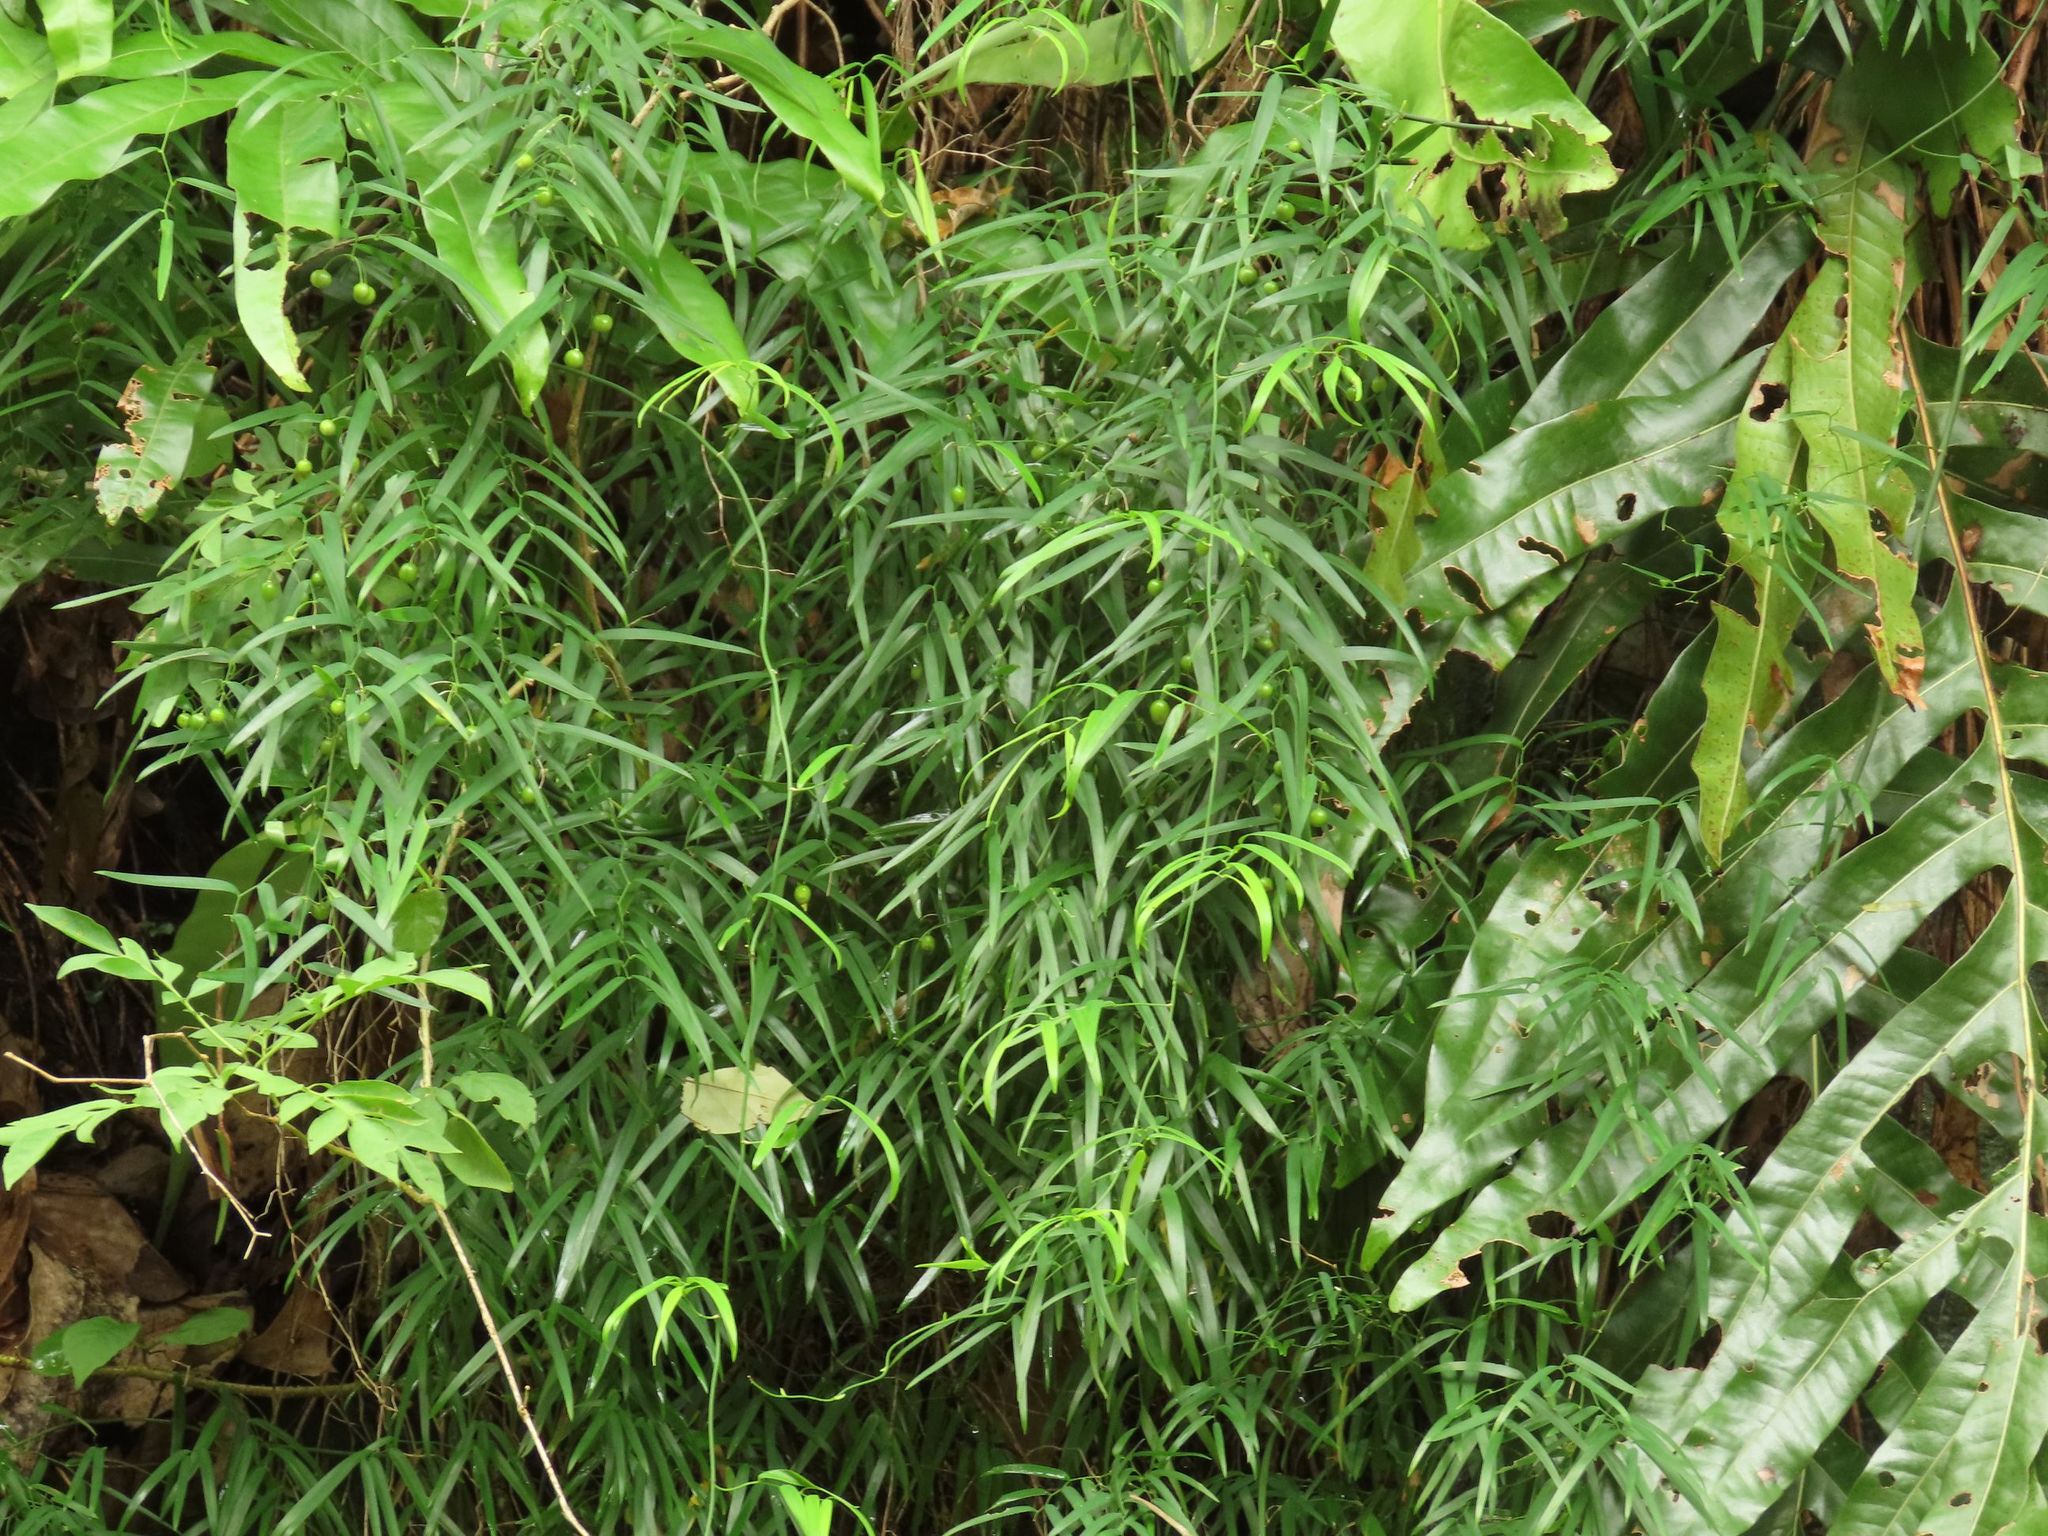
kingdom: Plantae
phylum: Tracheophyta
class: Liliopsida
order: Asparagales
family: Asphodelaceae
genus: Geitonoplesium
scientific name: Geitonoplesium cymosum
